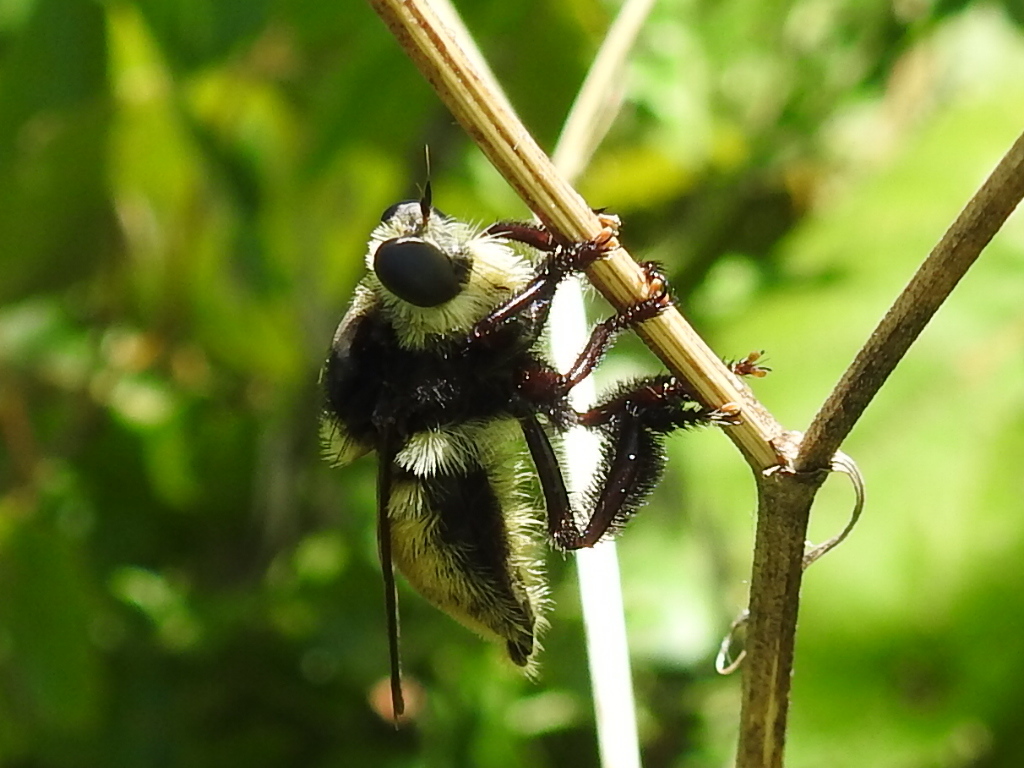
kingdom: Animalia
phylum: Arthropoda
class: Insecta
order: Diptera
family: Asilidae
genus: Mallophora
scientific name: Mallophora fautrix
